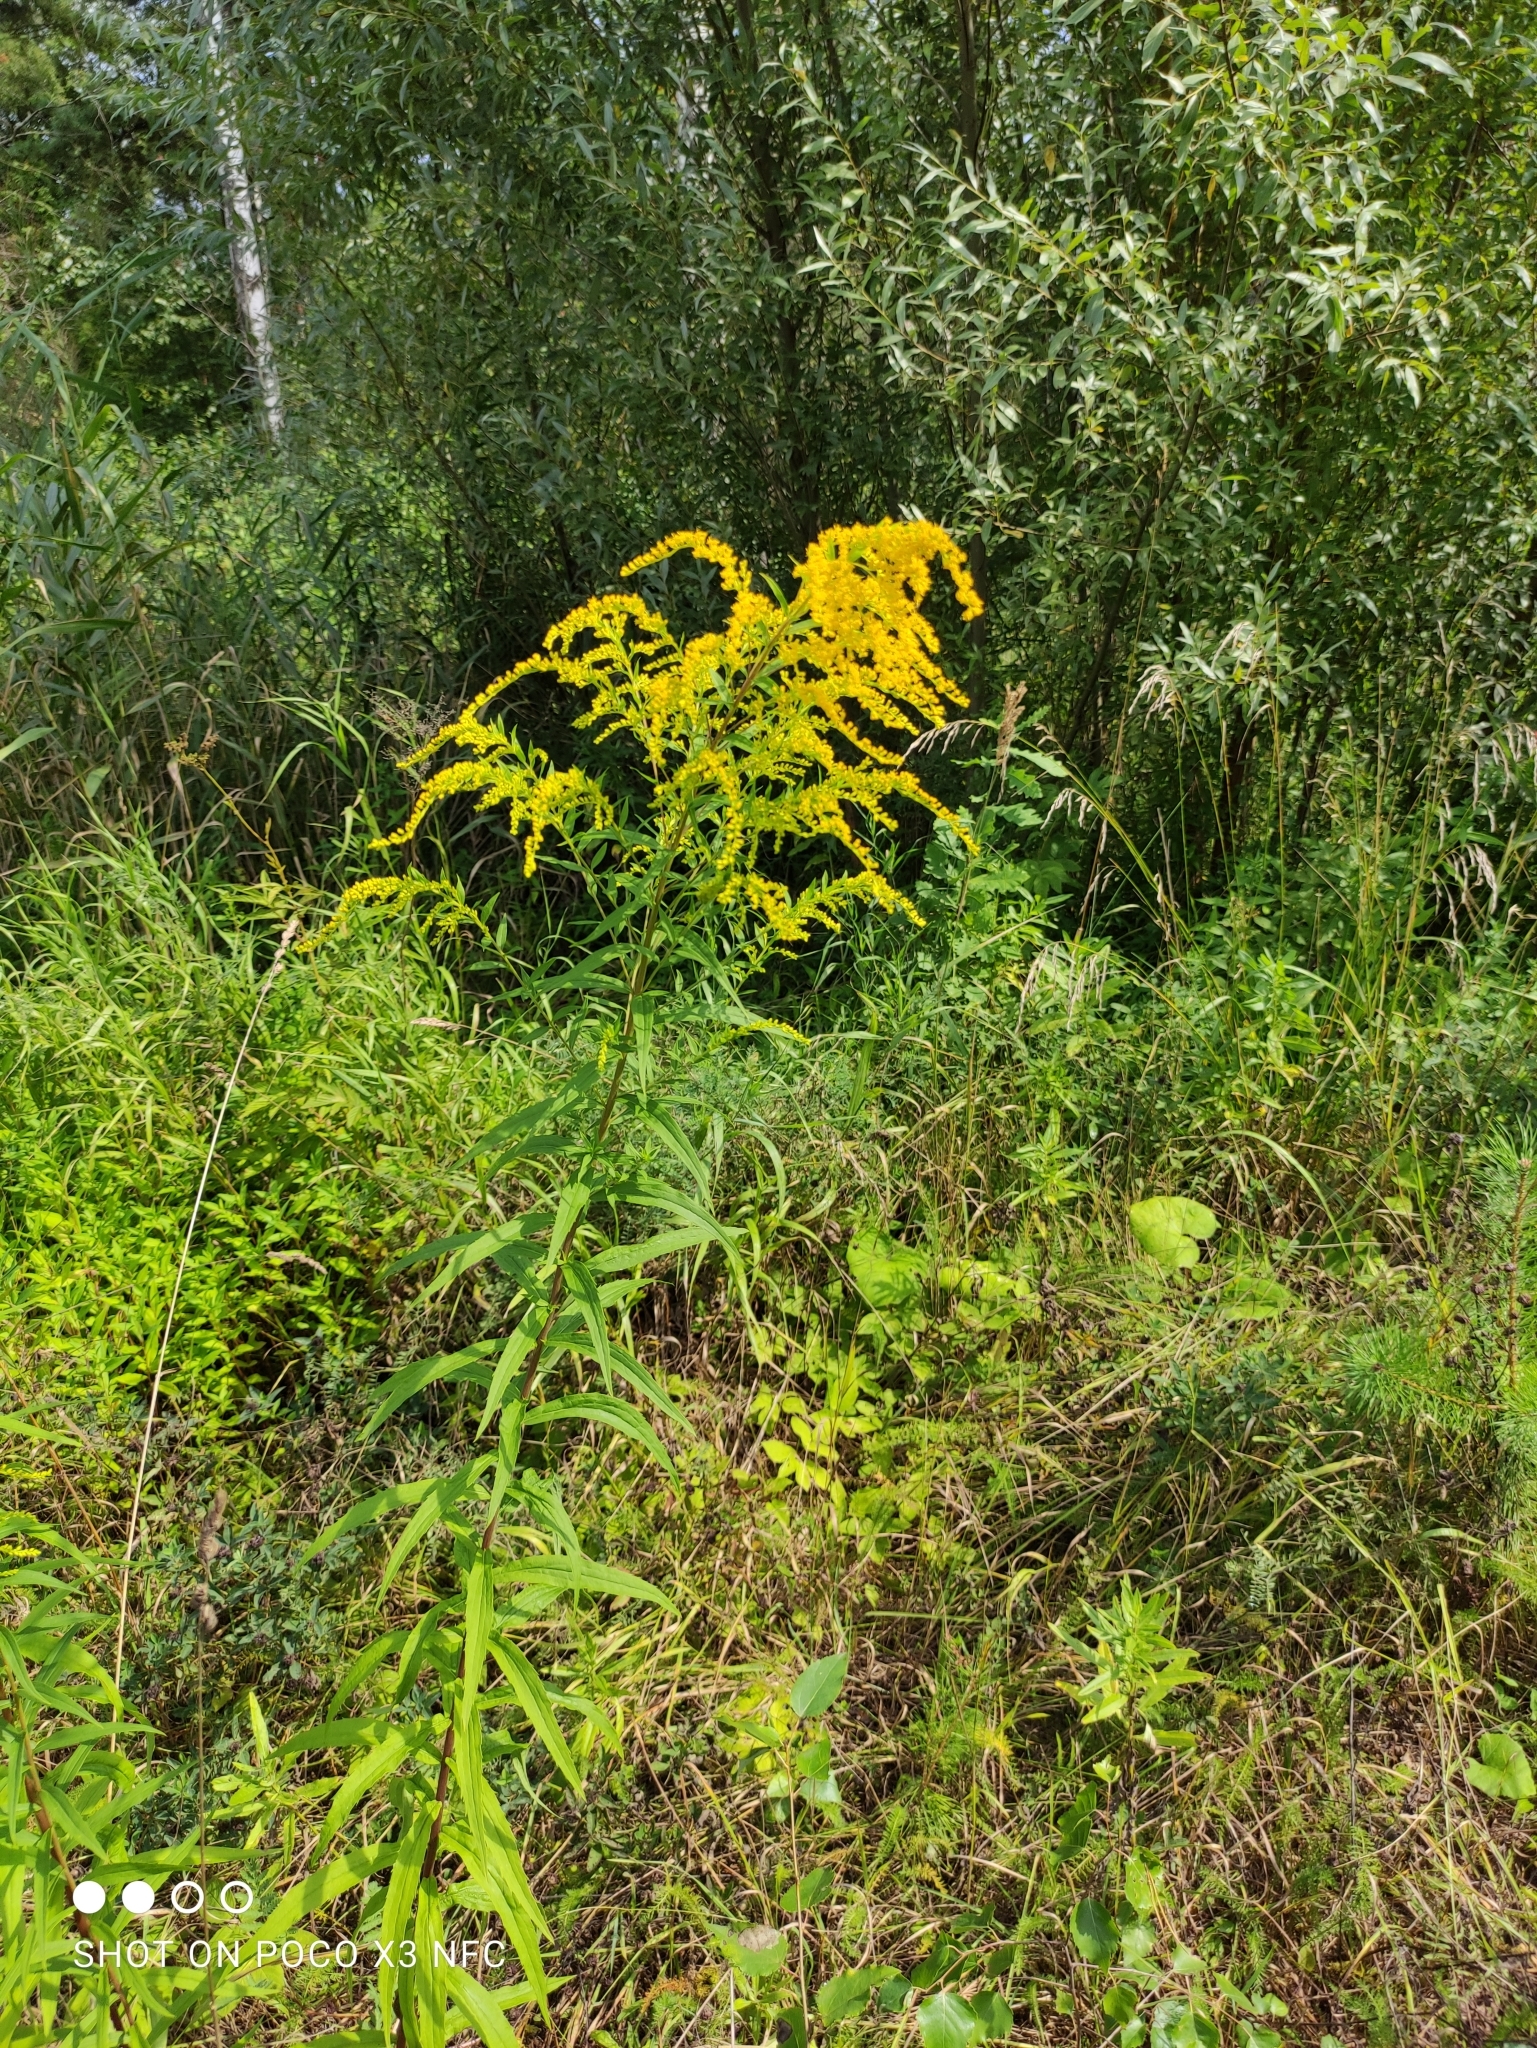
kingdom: Plantae
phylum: Tracheophyta
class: Magnoliopsida
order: Asterales
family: Asteraceae
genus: Solidago
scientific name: Solidago canadensis
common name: Canada goldenrod
